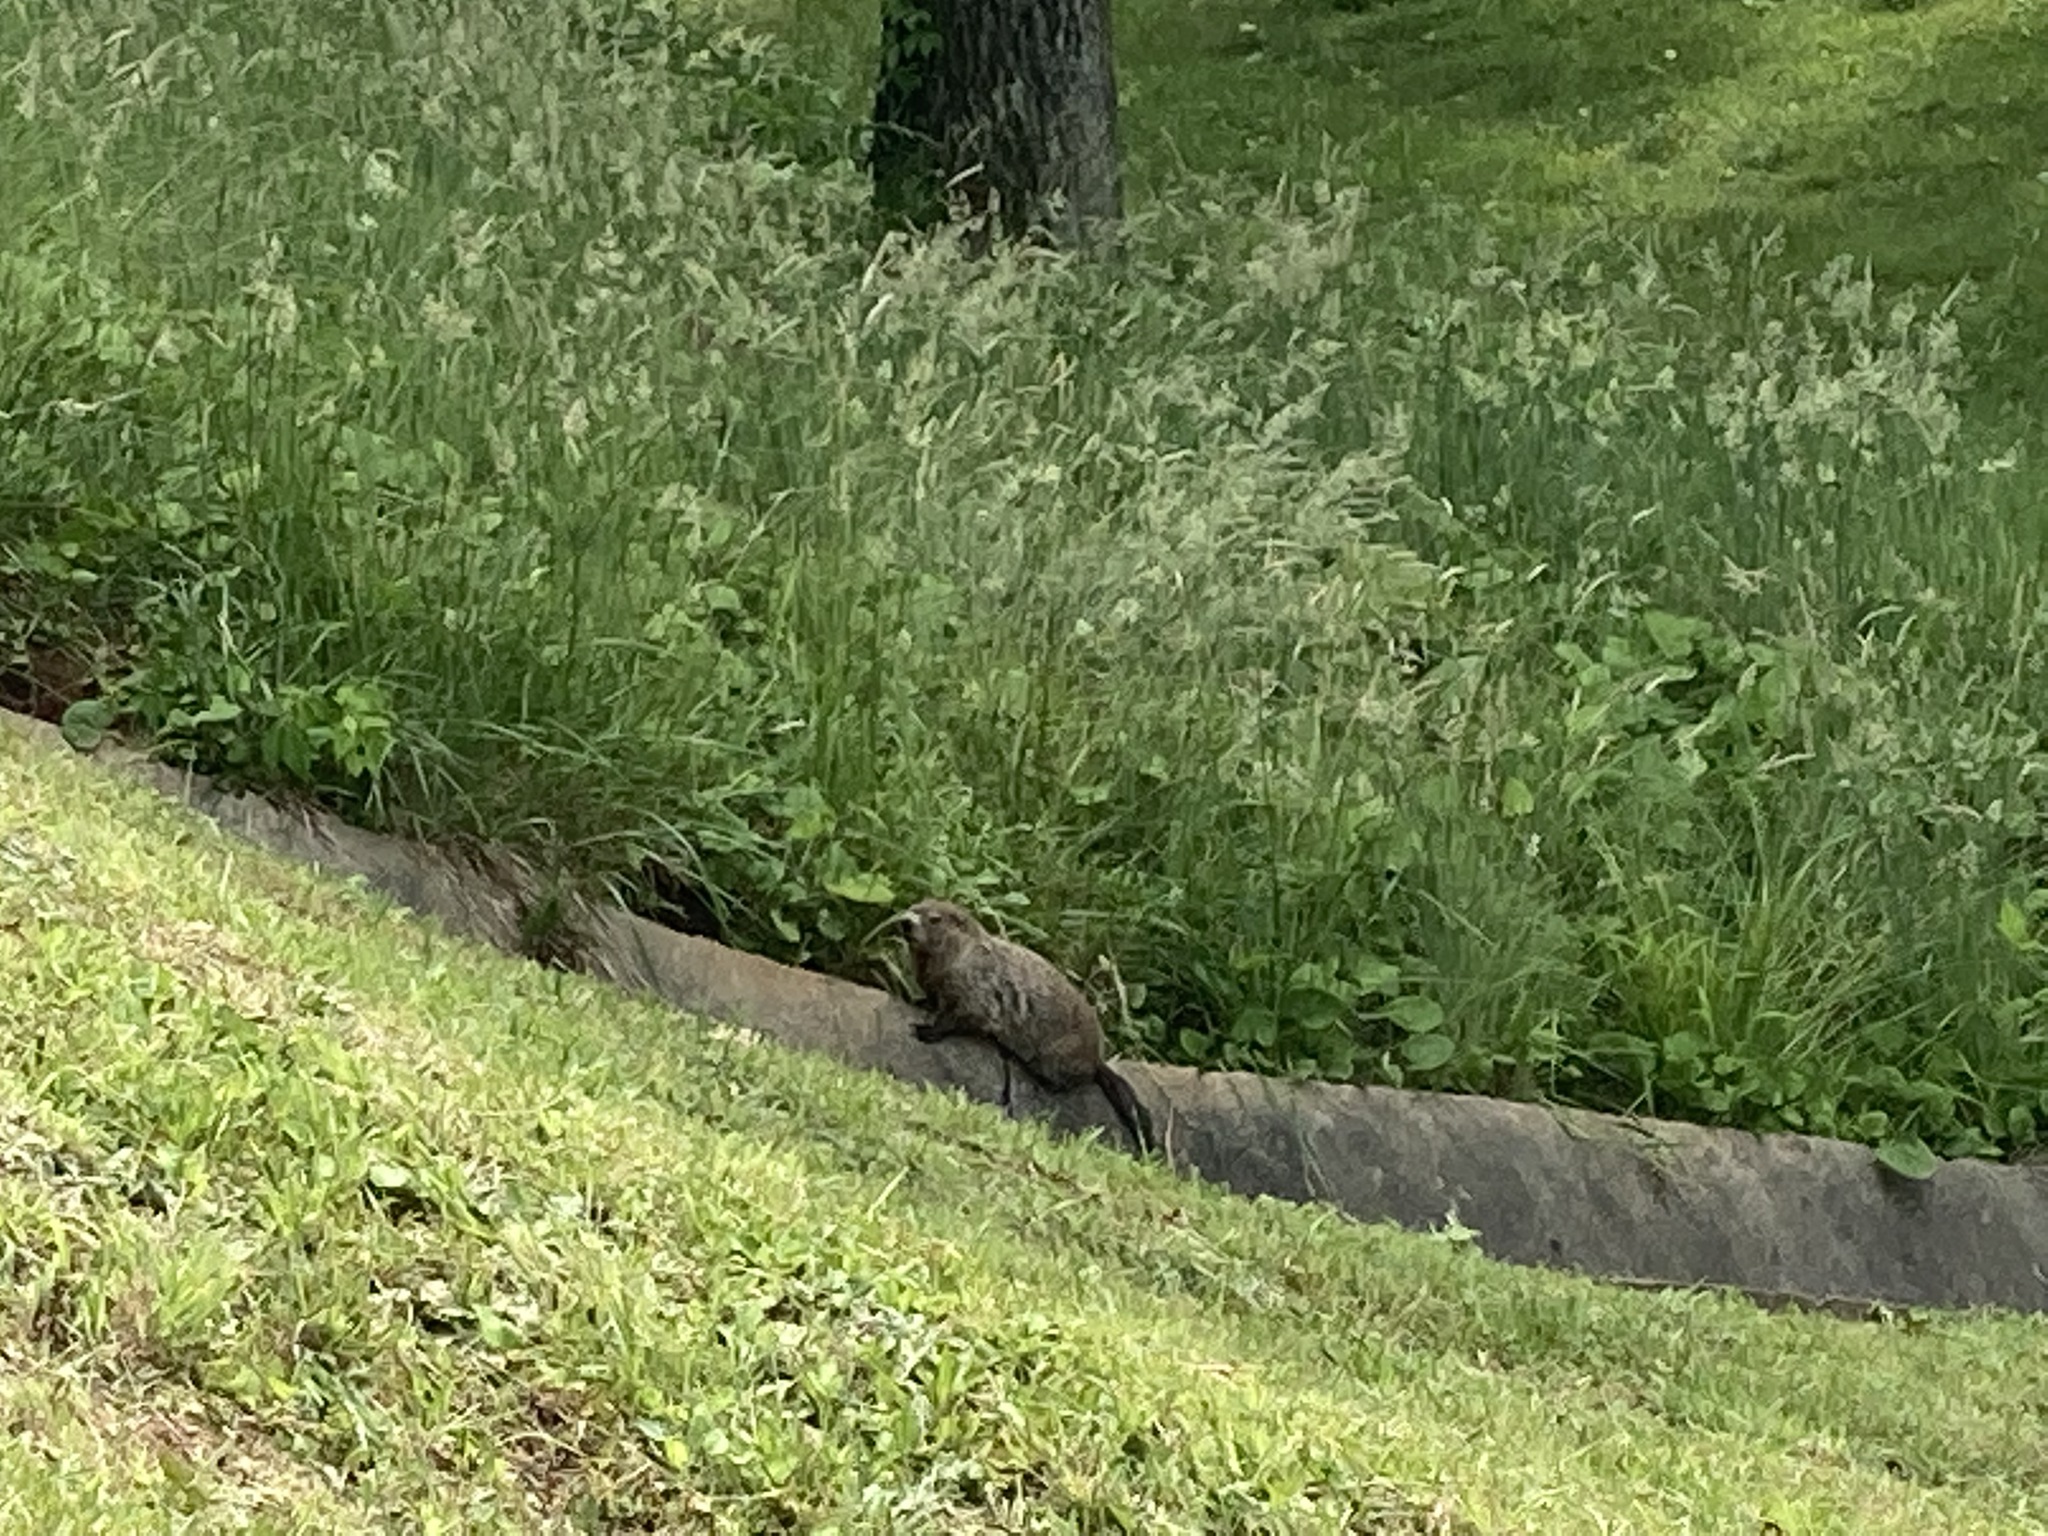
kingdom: Animalia
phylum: Chordata
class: Mammalia
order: Rodentia
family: Sciuridae
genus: Marmota
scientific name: Marmota monax
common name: Groundhog
